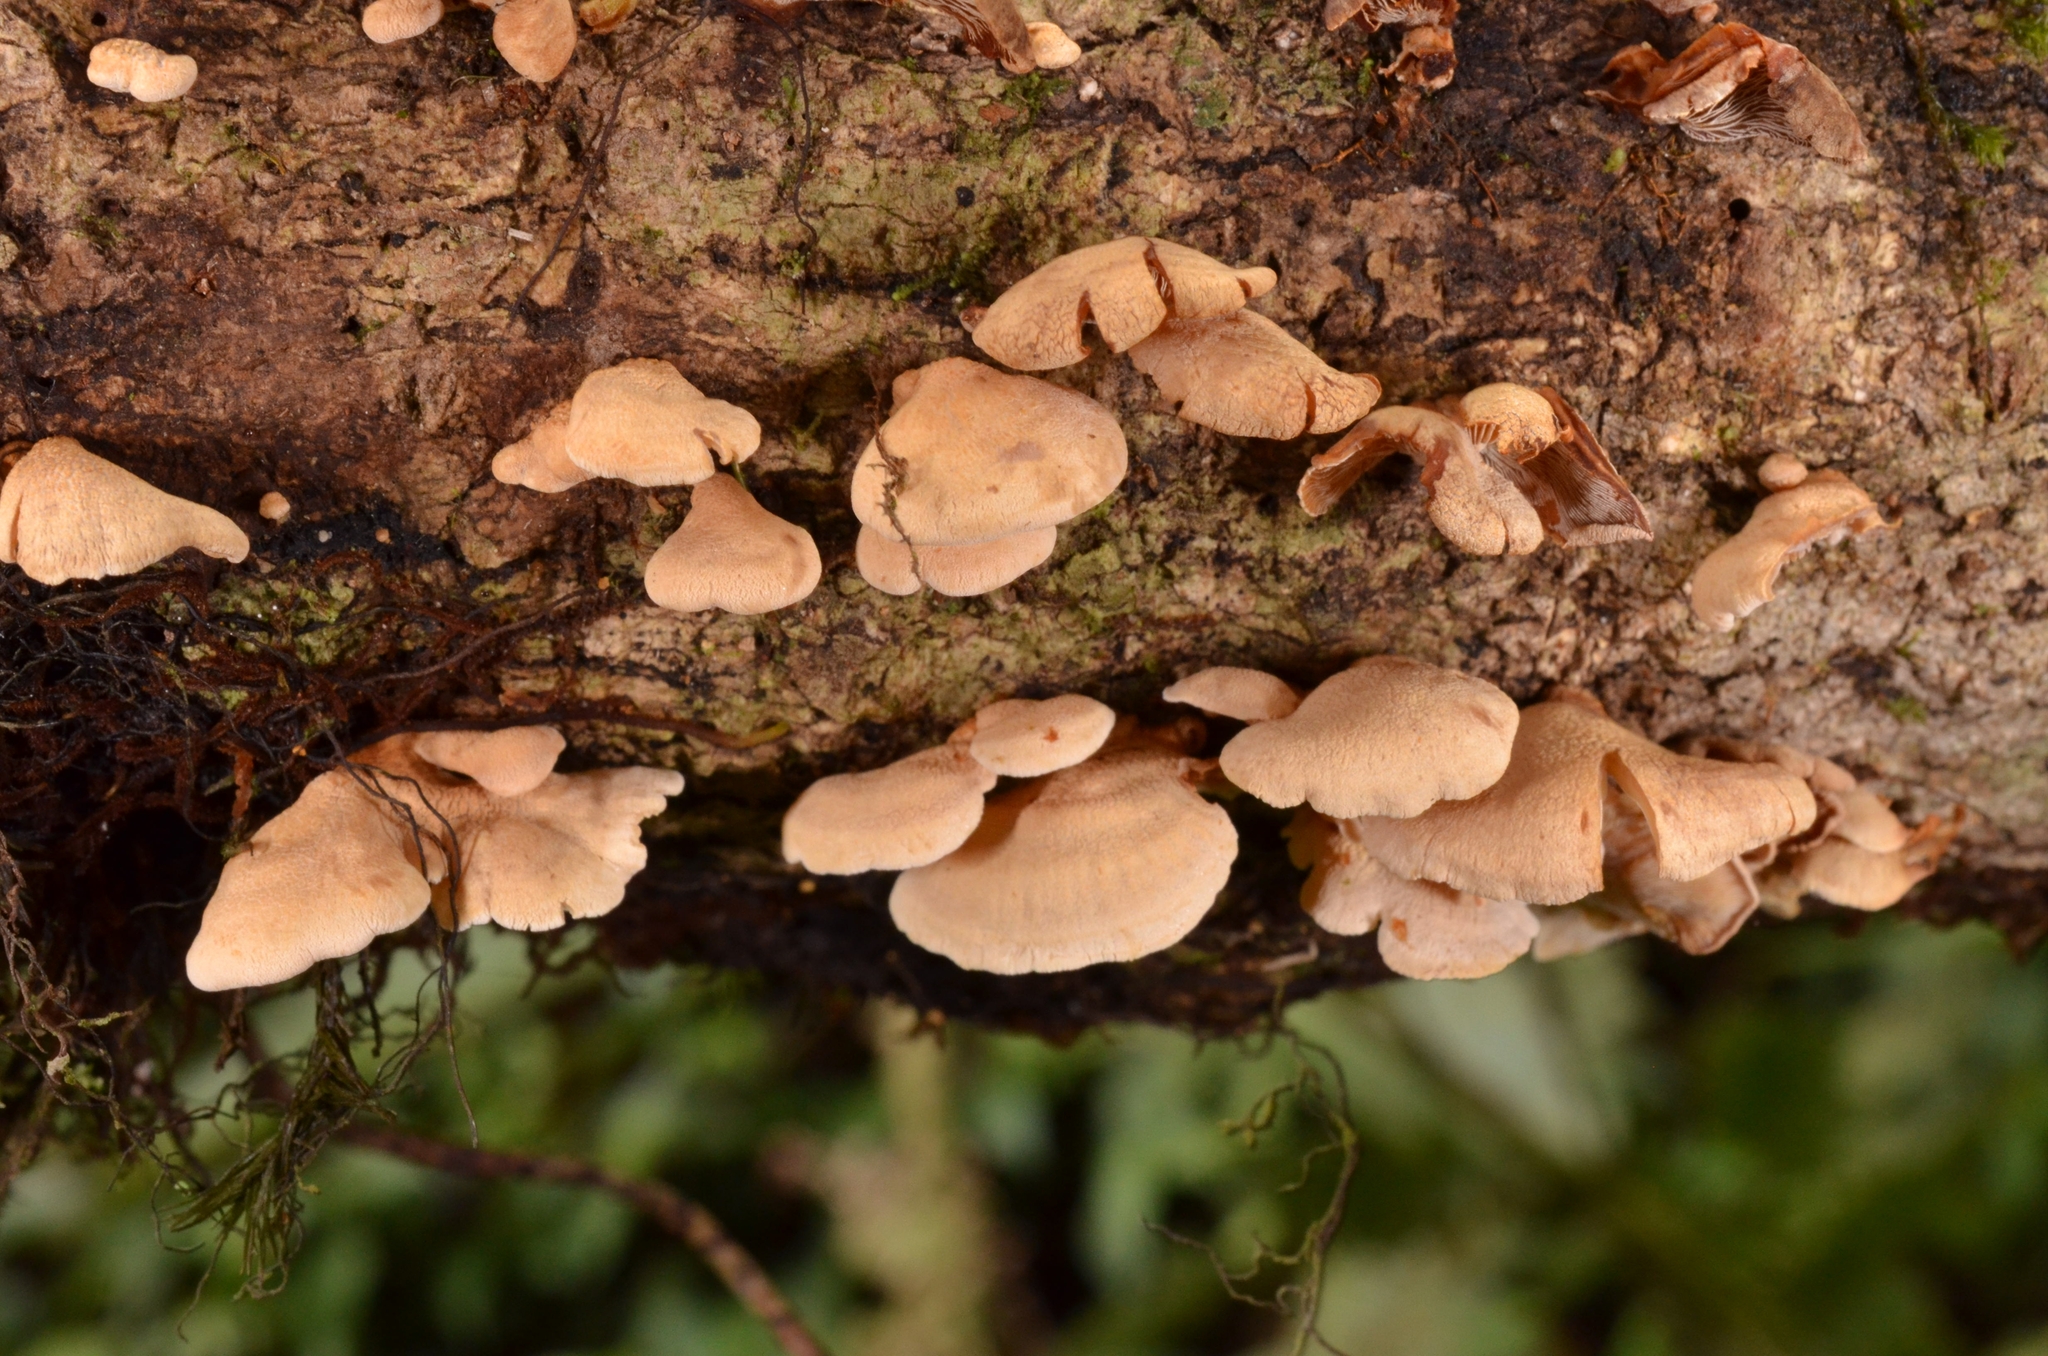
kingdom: Fungi
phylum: Basidiomycota
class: Agaricomycetes
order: Agaricales
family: Mycenaceae
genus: Panellus
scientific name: Panellus stipticus
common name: Bitter oysterling
